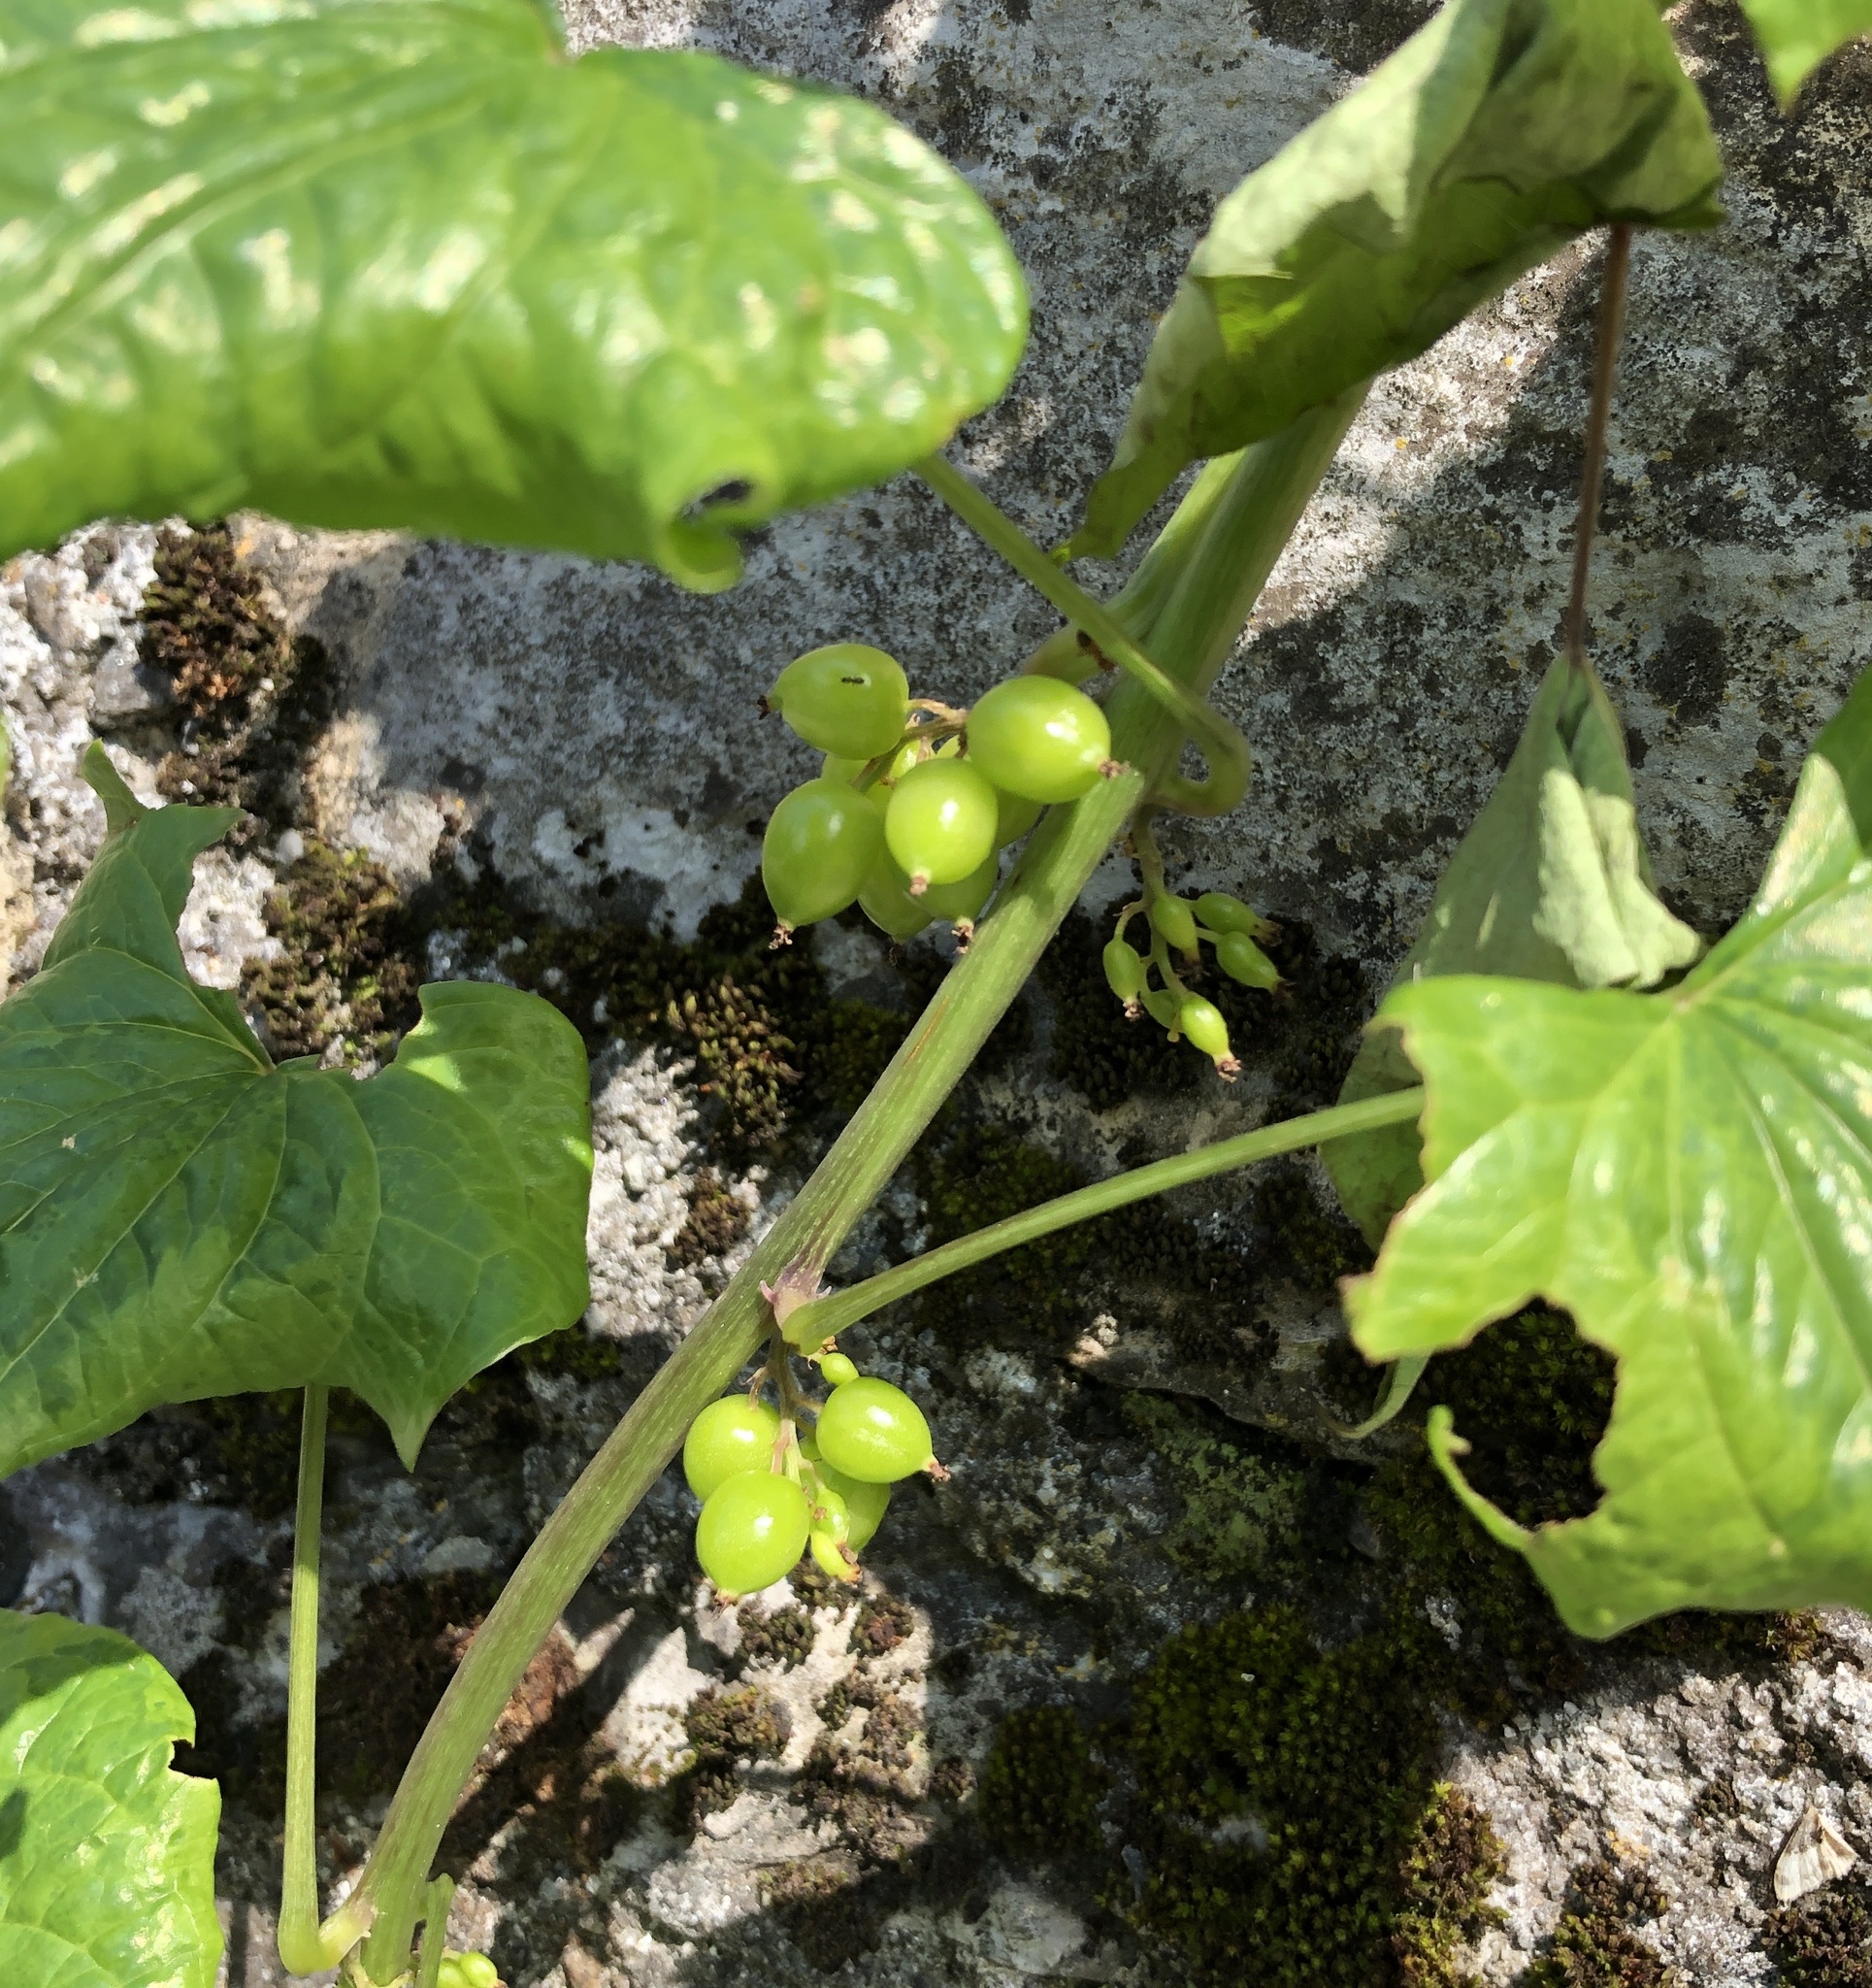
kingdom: Plantae
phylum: Tracheophyta
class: Liliopsida
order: Dioscoreales
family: Dioscoreaceae
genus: Dioscorea
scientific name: Dioscorea communis
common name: Black-bindweed
